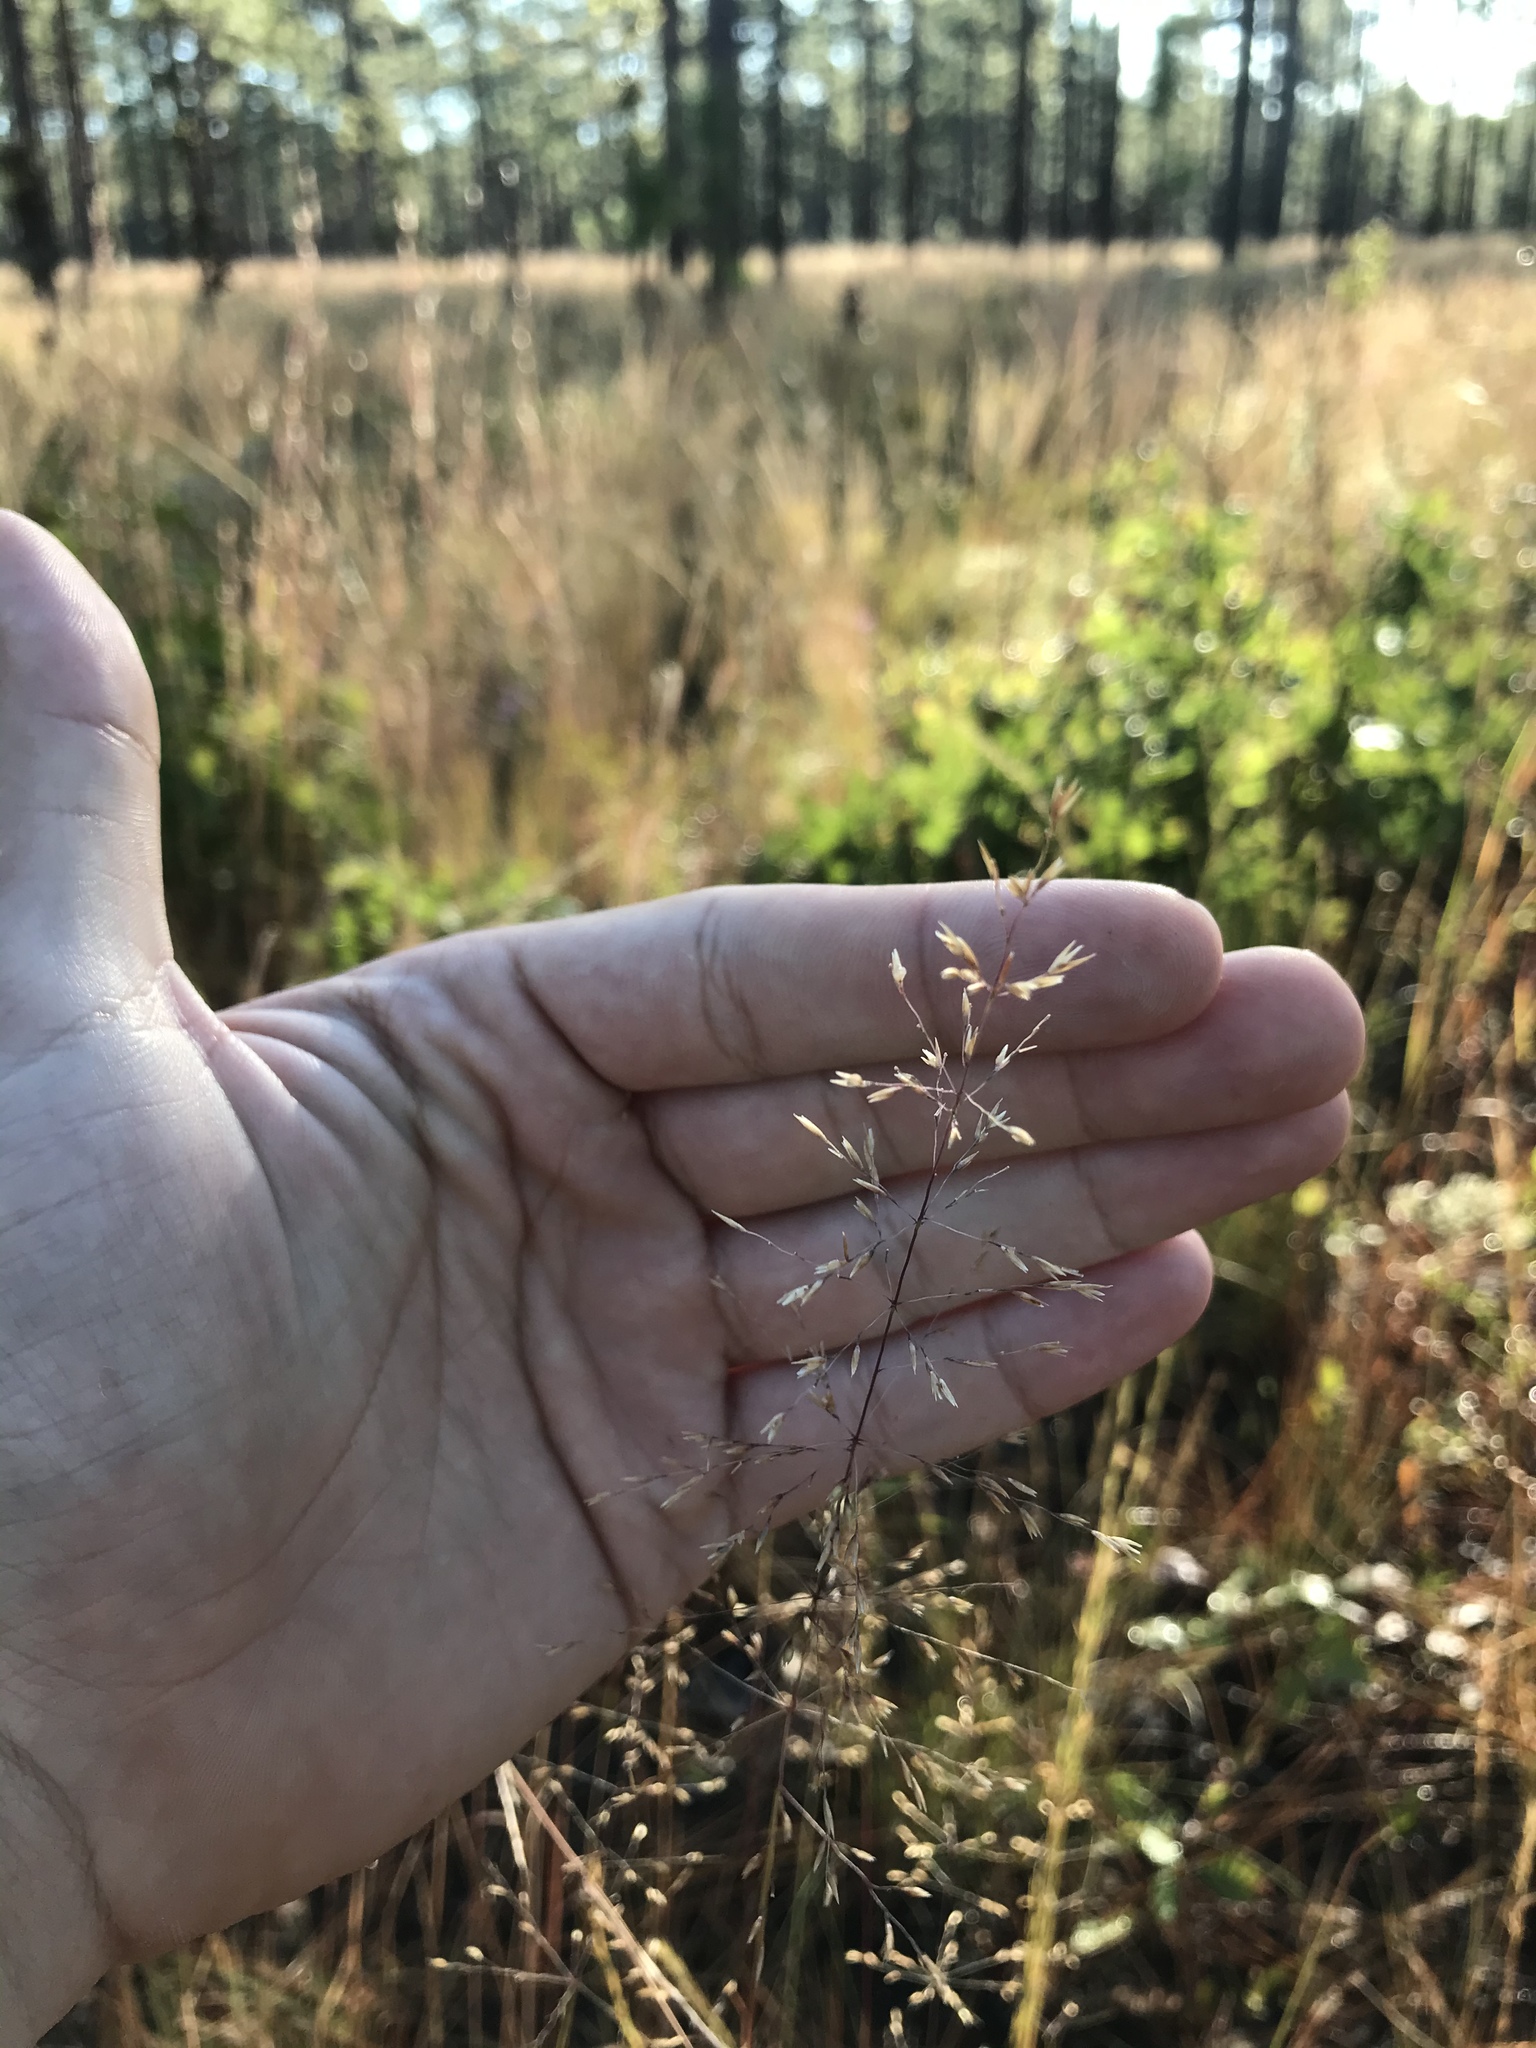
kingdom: Plantae
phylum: Tracheophyta
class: Liliopsida
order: Poales
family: Poaceae
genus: Sporobolus
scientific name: Sporobolus junceus
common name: Lizard grass
